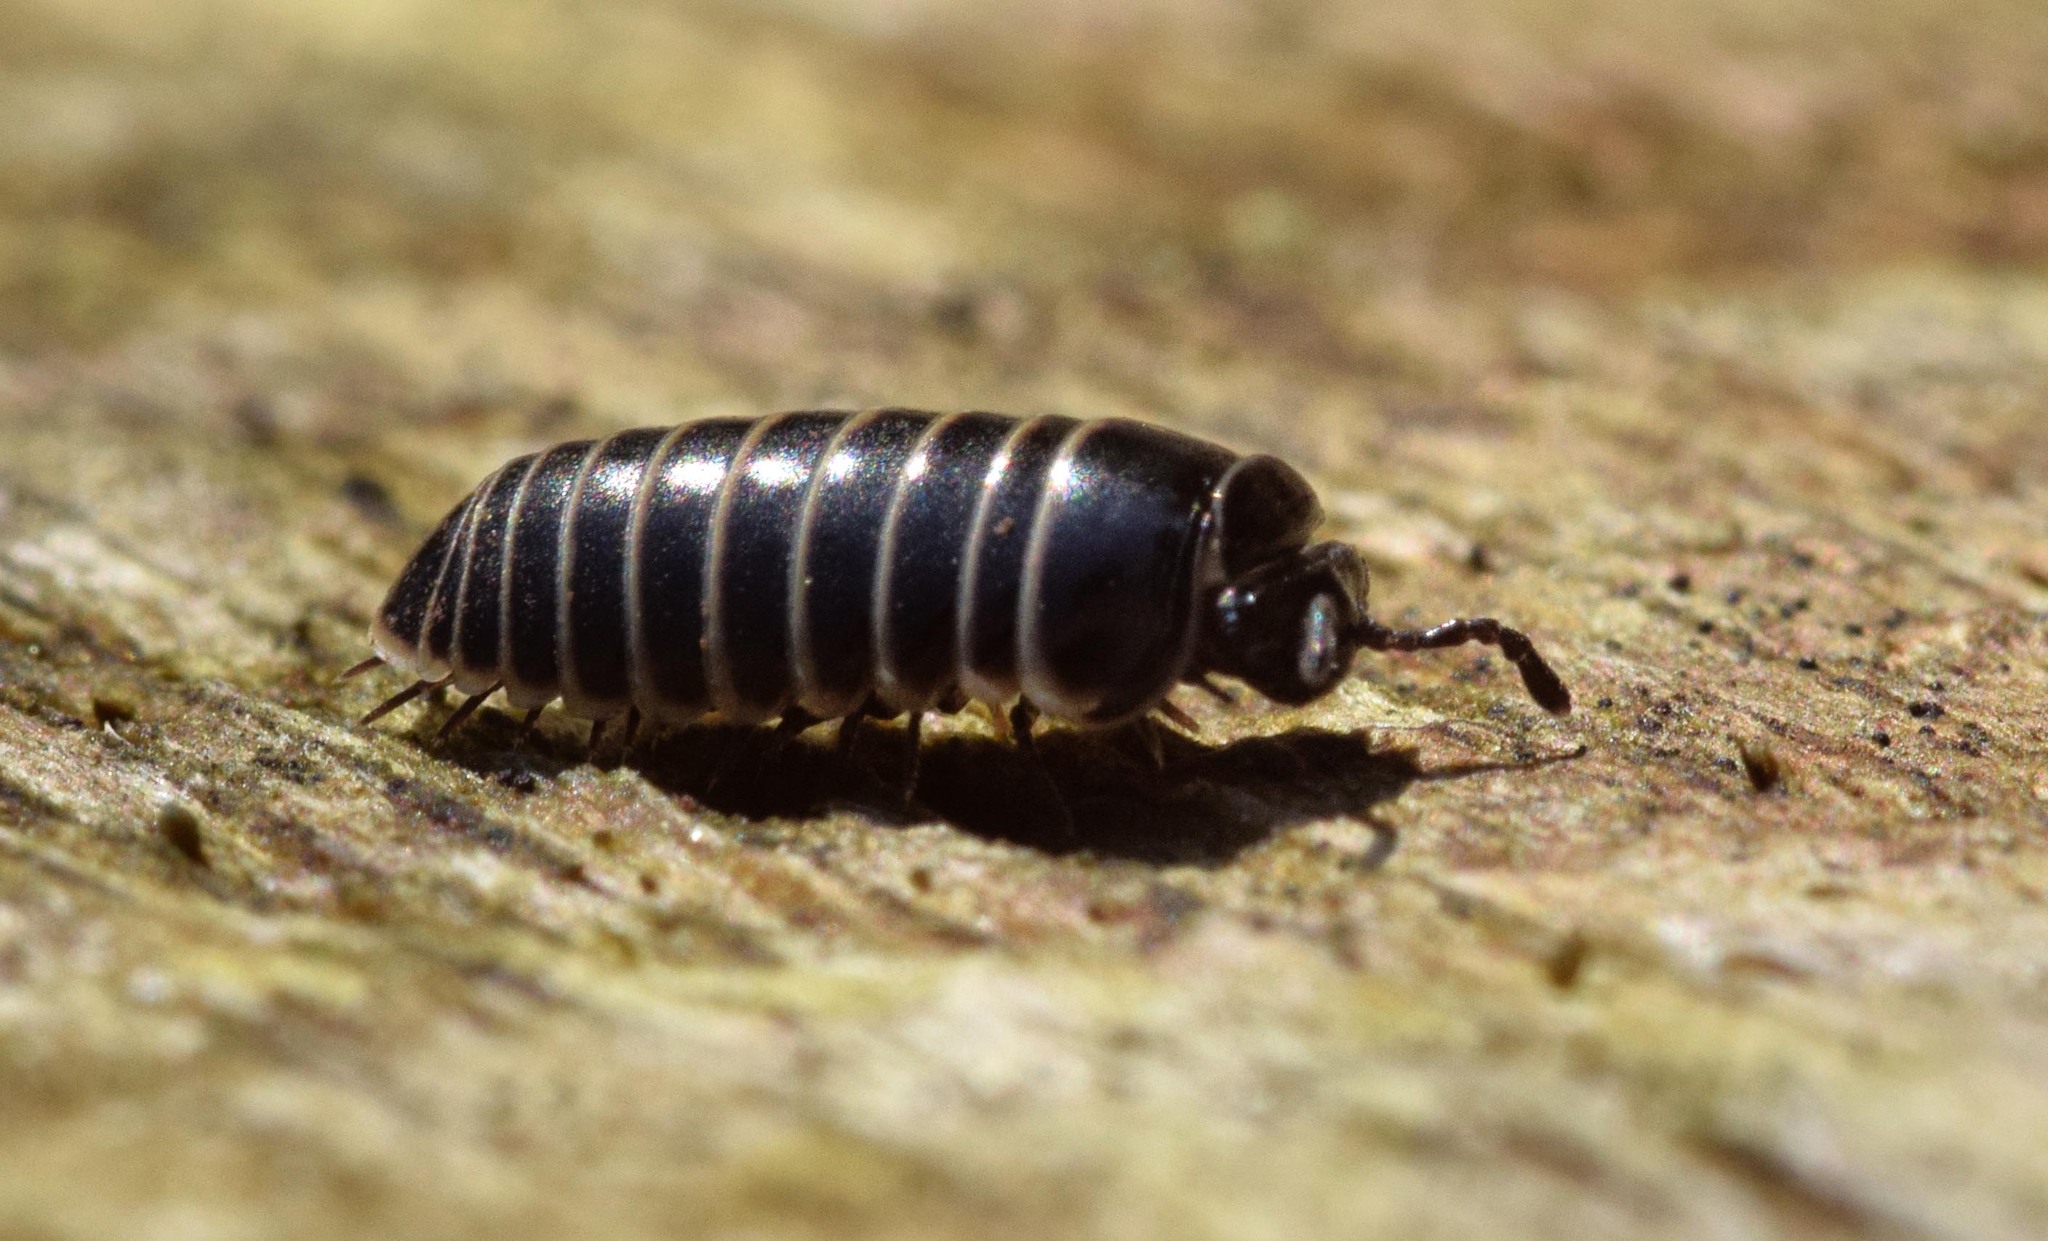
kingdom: Animalia
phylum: Arthropoda
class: Diplopoda
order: Glomerida
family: Glomeridae
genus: Glomeris
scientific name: Glomeris marginata
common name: Bordered pill millipede
